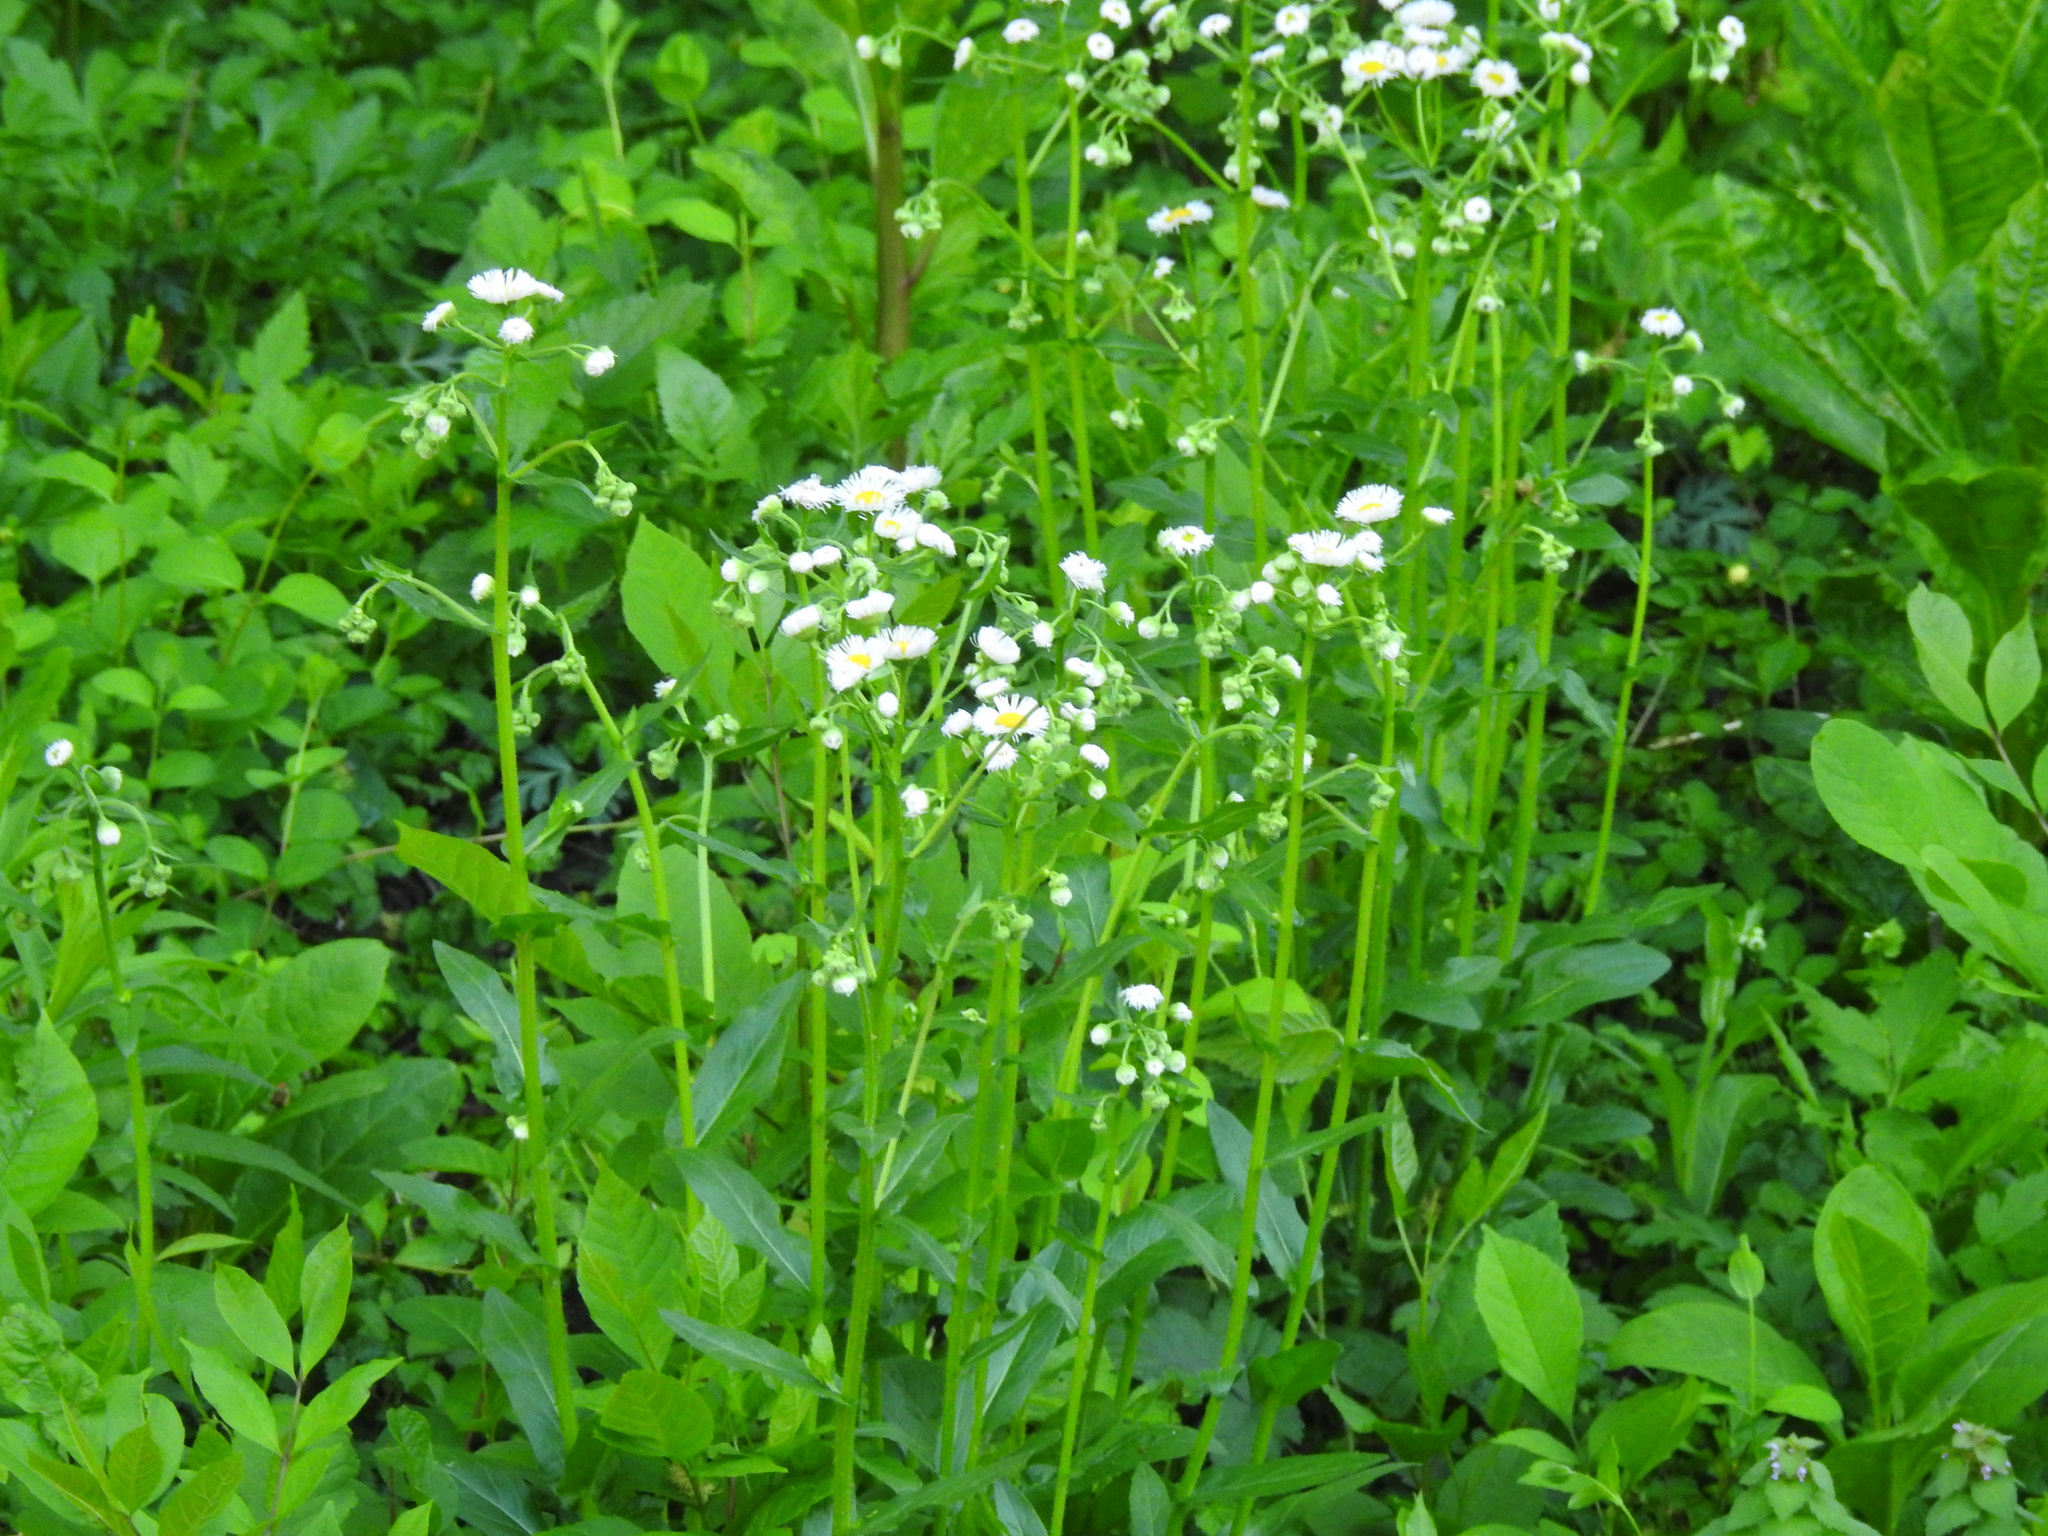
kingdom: Plantae
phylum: Tracheophyta
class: Magnoliopsida
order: Asterales
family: Asteraceae
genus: Erigeron
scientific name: Erigeron philadelphicus
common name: Robin's-plantain
